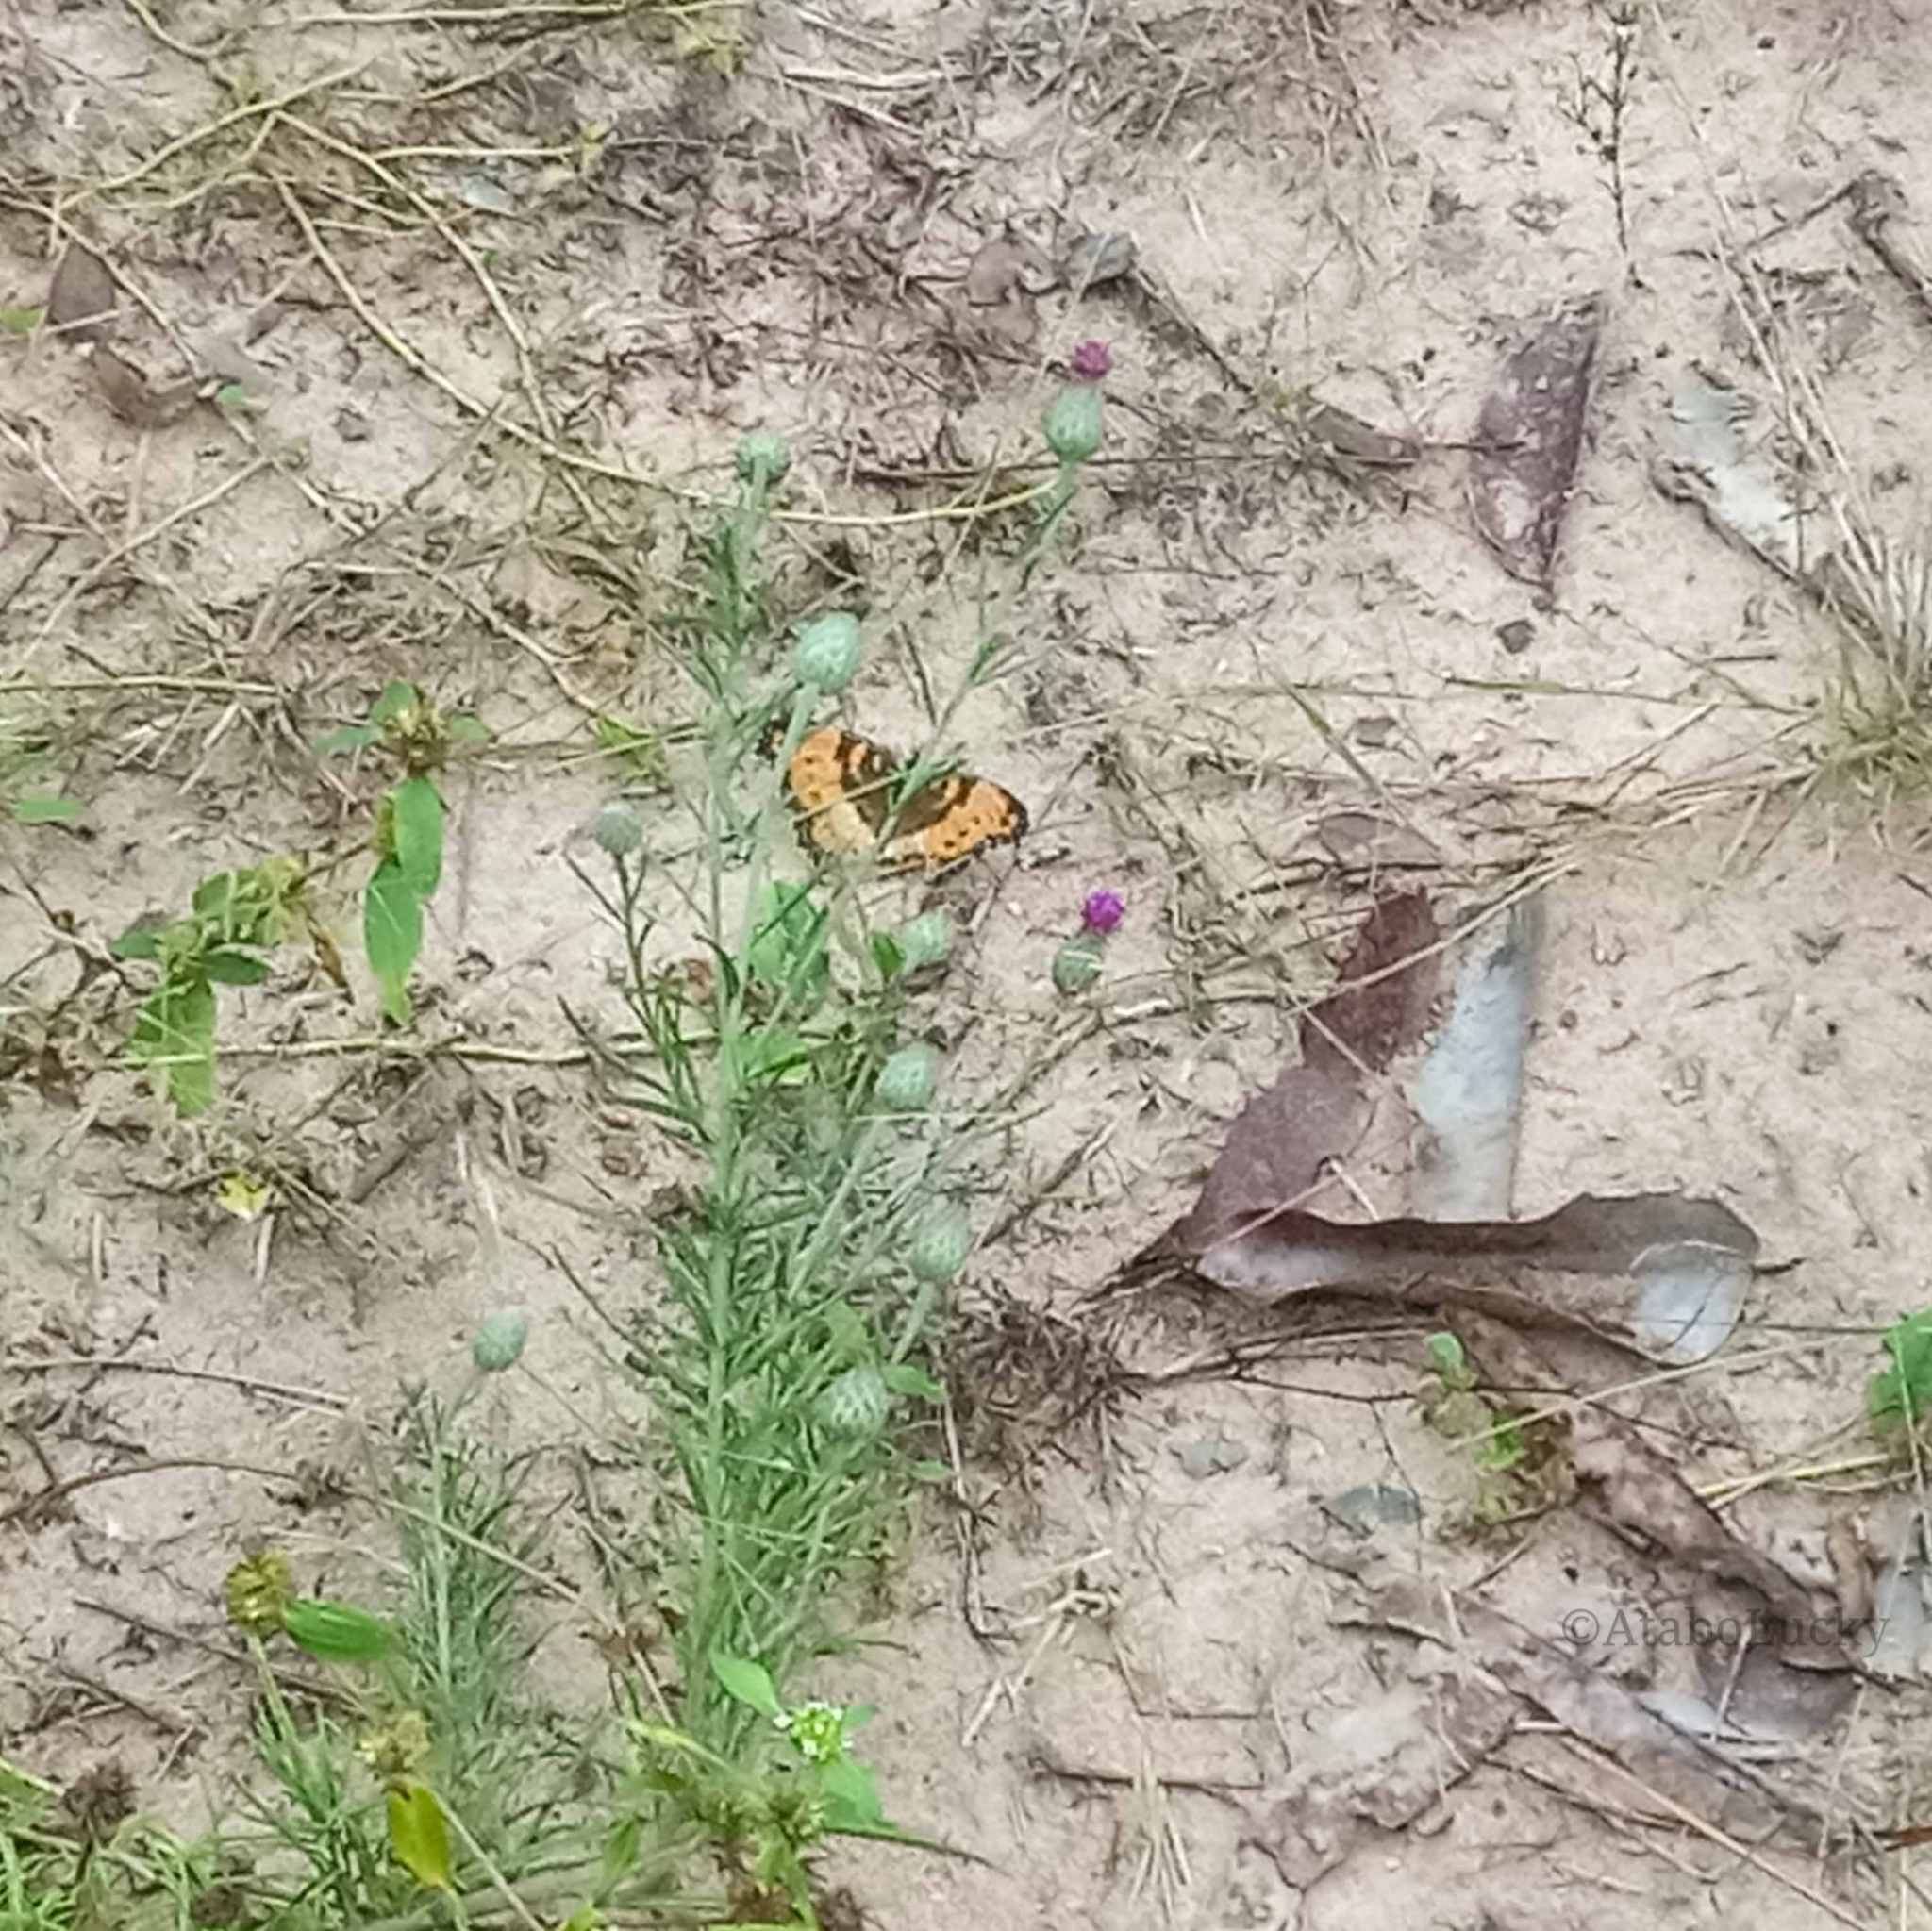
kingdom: Animalia
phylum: Arthropoda
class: Insecta
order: Lepidoptera
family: Nymphalidae
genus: Precis
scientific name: Precis octavia
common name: Gaudy commodore
